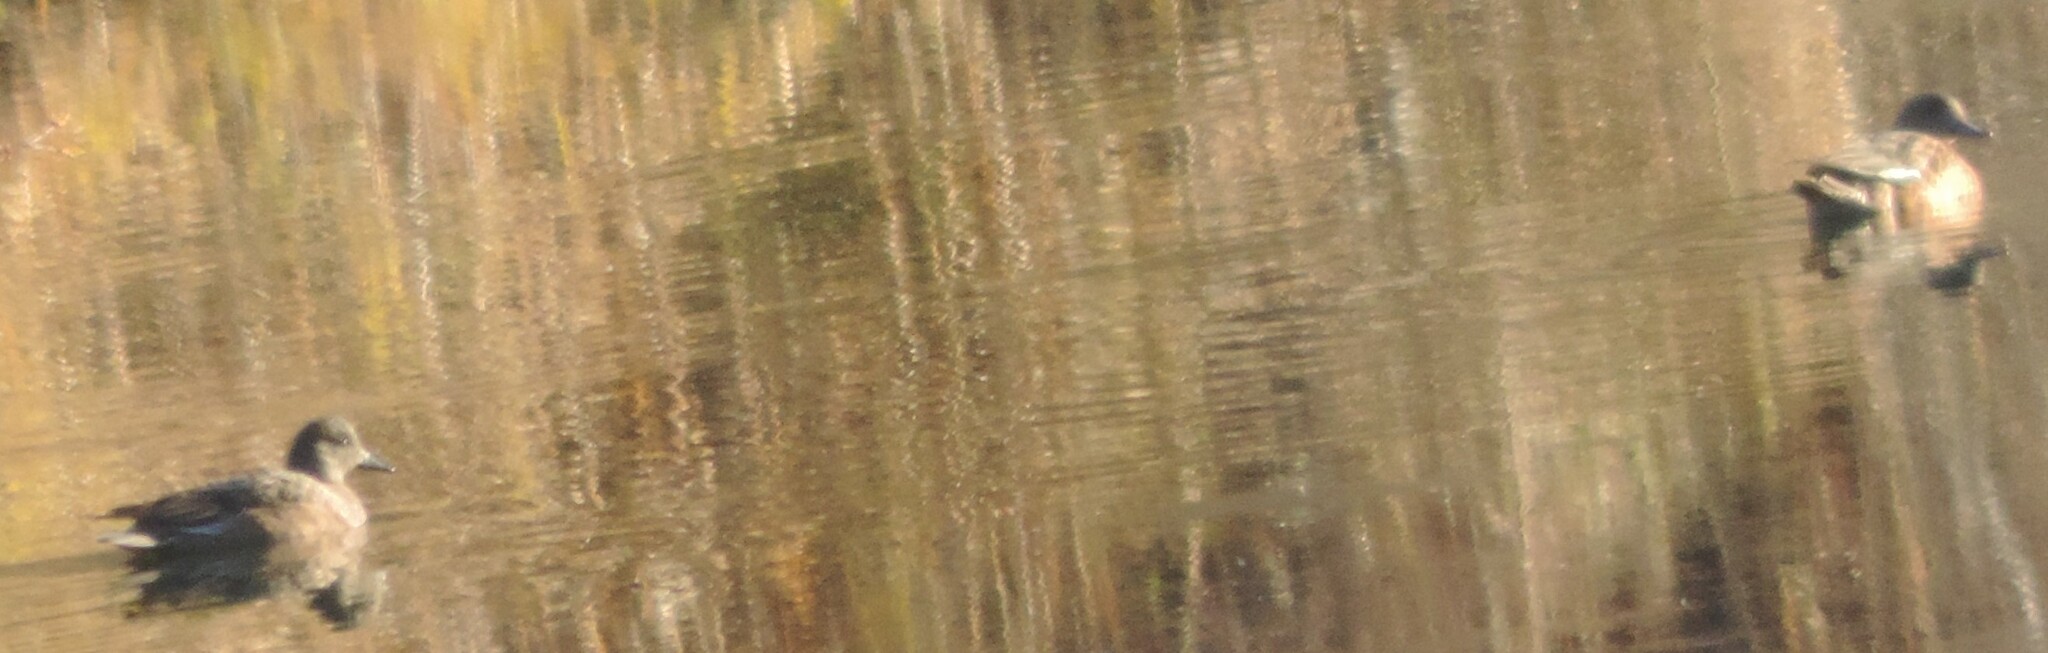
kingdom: Animalia
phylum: Chordata
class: Aves
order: Anseriformes
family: Anatidae
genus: Mareca
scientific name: Mareca americana
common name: American wigeon
